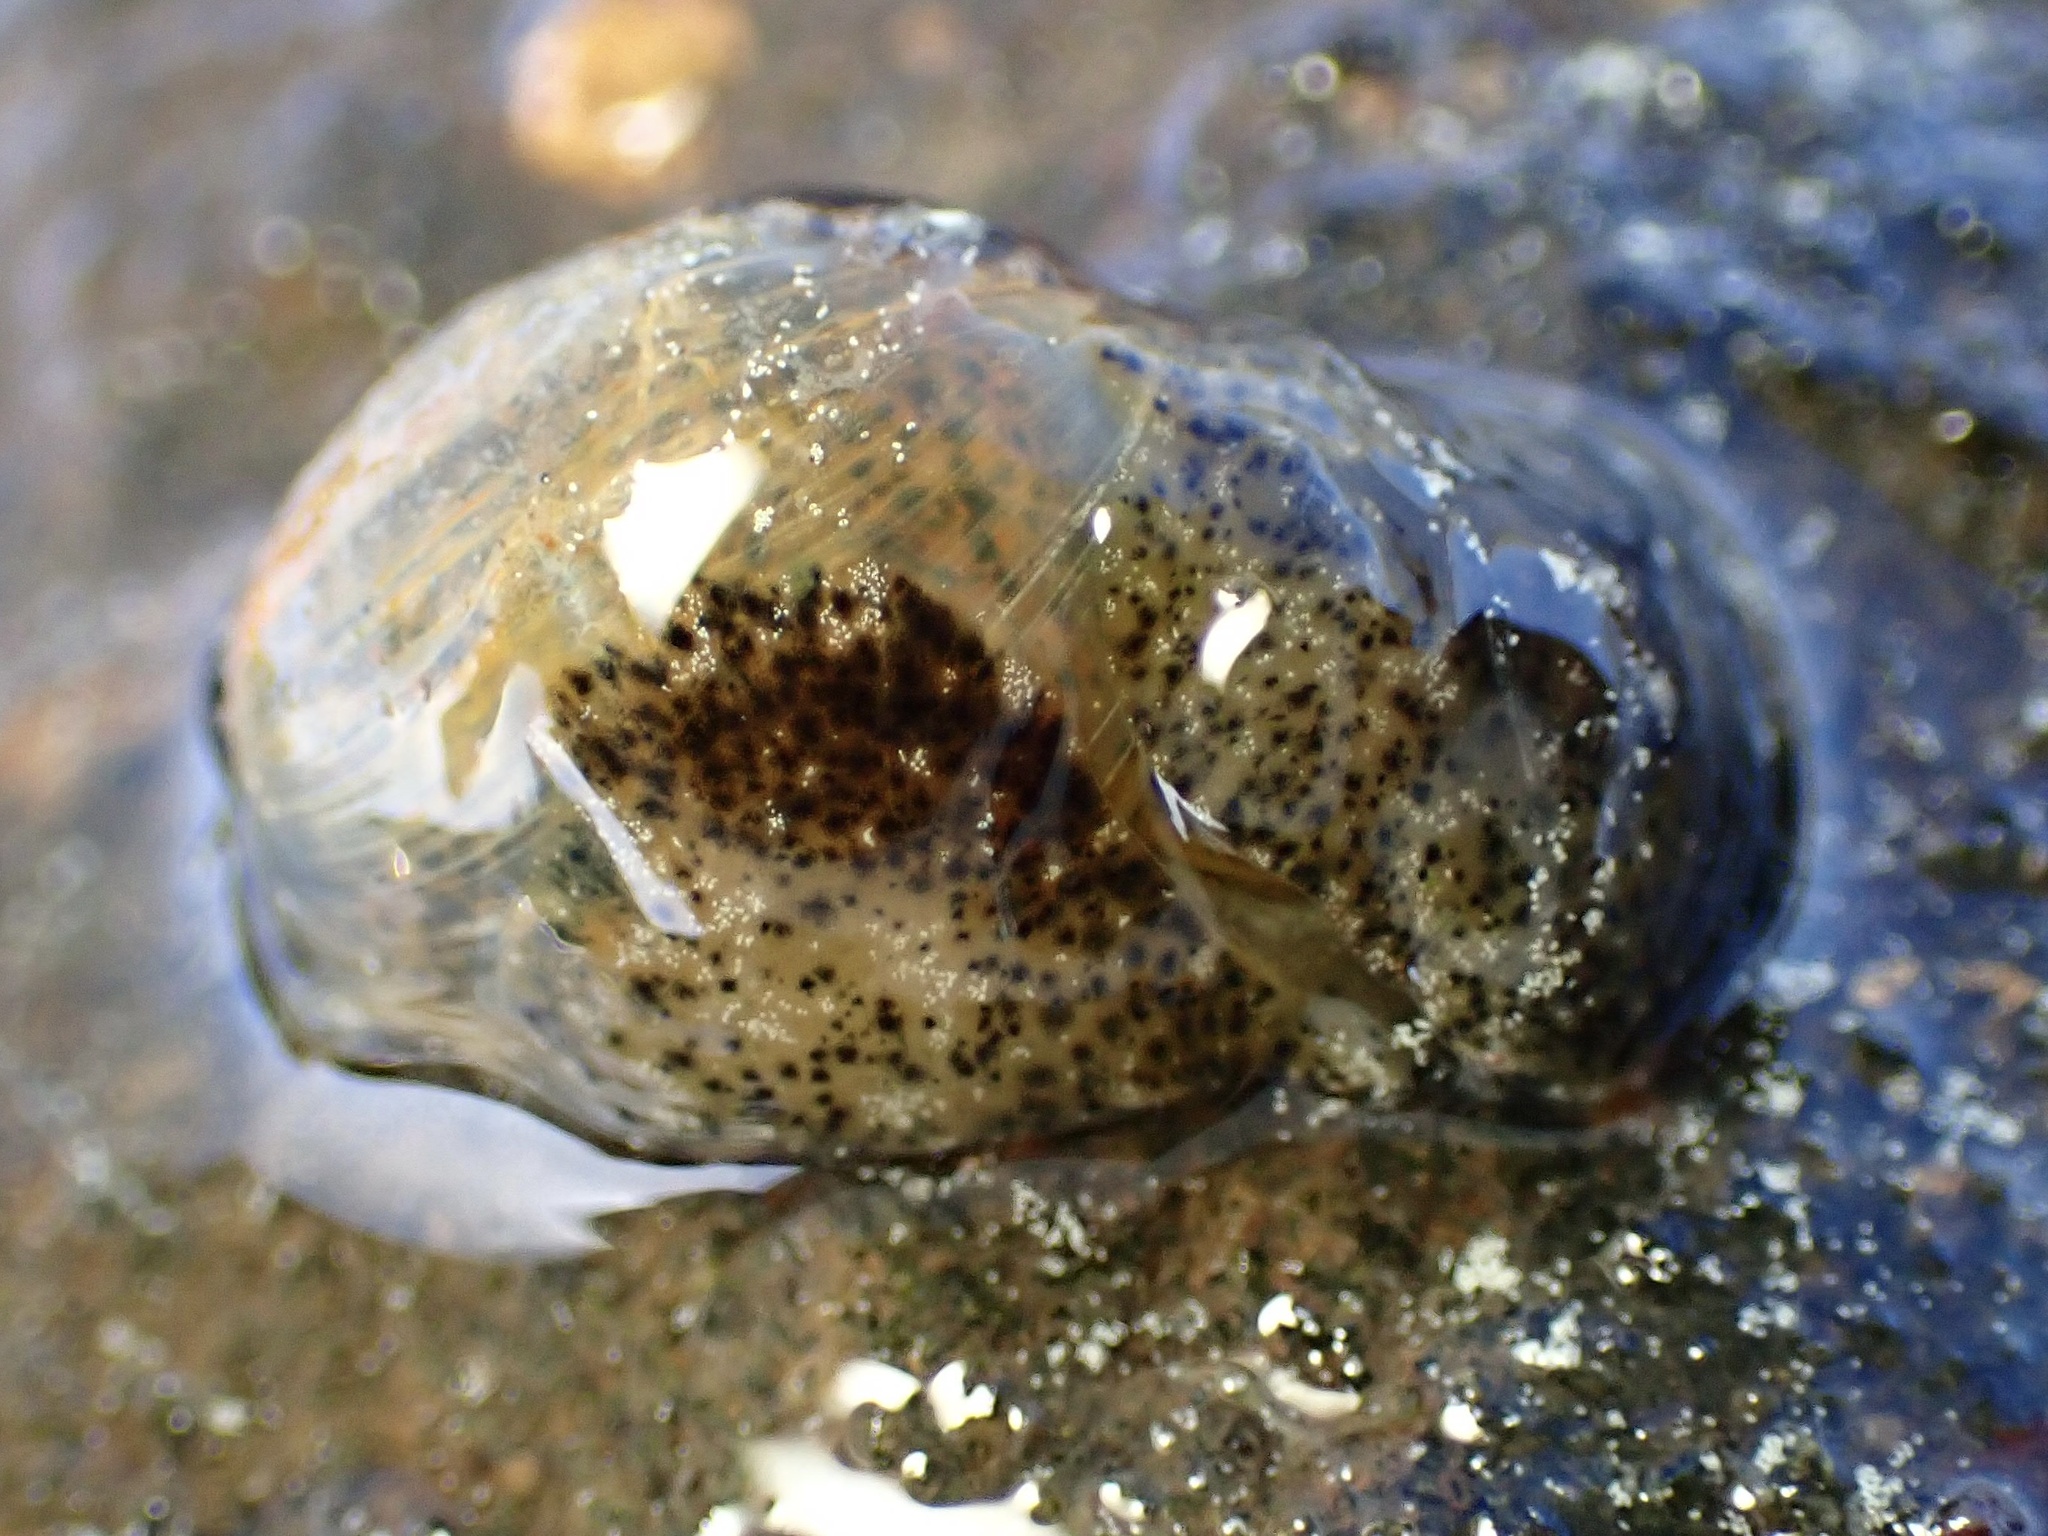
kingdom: Animalia
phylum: Mollusca
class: Gastropoda
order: Cephalaspidea
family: Haminoeidae
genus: Haloa
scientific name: Haloa japonica
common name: Japanese bubble snail
